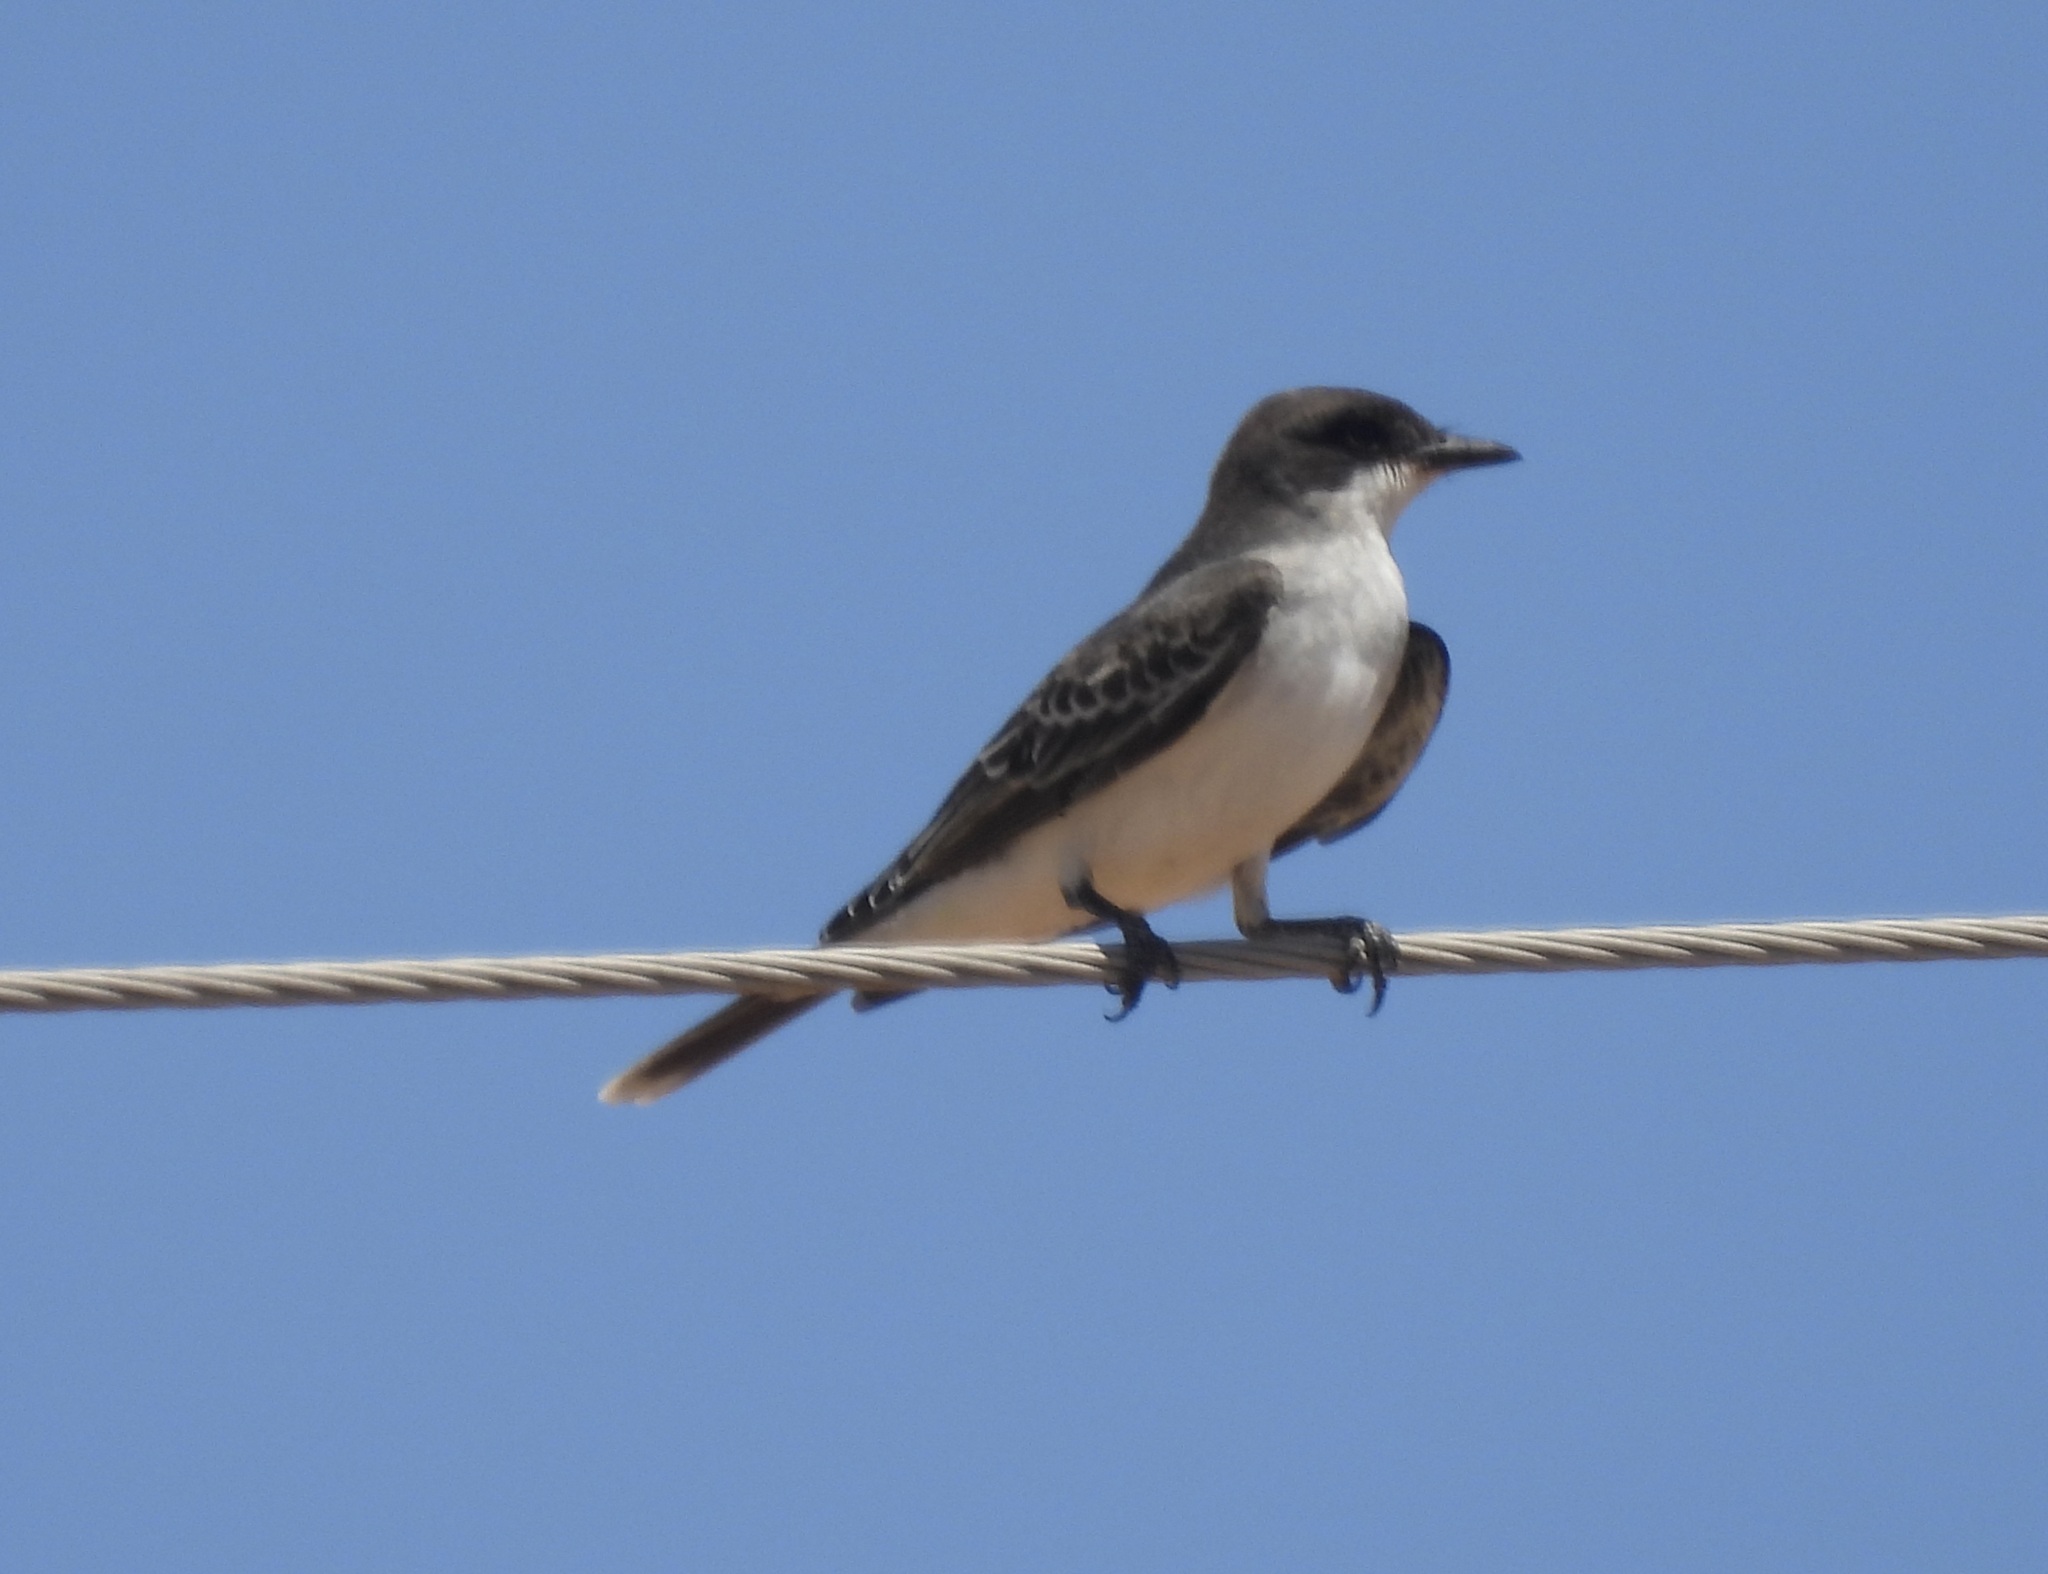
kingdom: Animalia
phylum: Chordata
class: Aves
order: Passeriformes
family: Tyrannidae
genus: Tyrannus
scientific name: Tyrannus tyrannus
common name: Eastern kingbird
